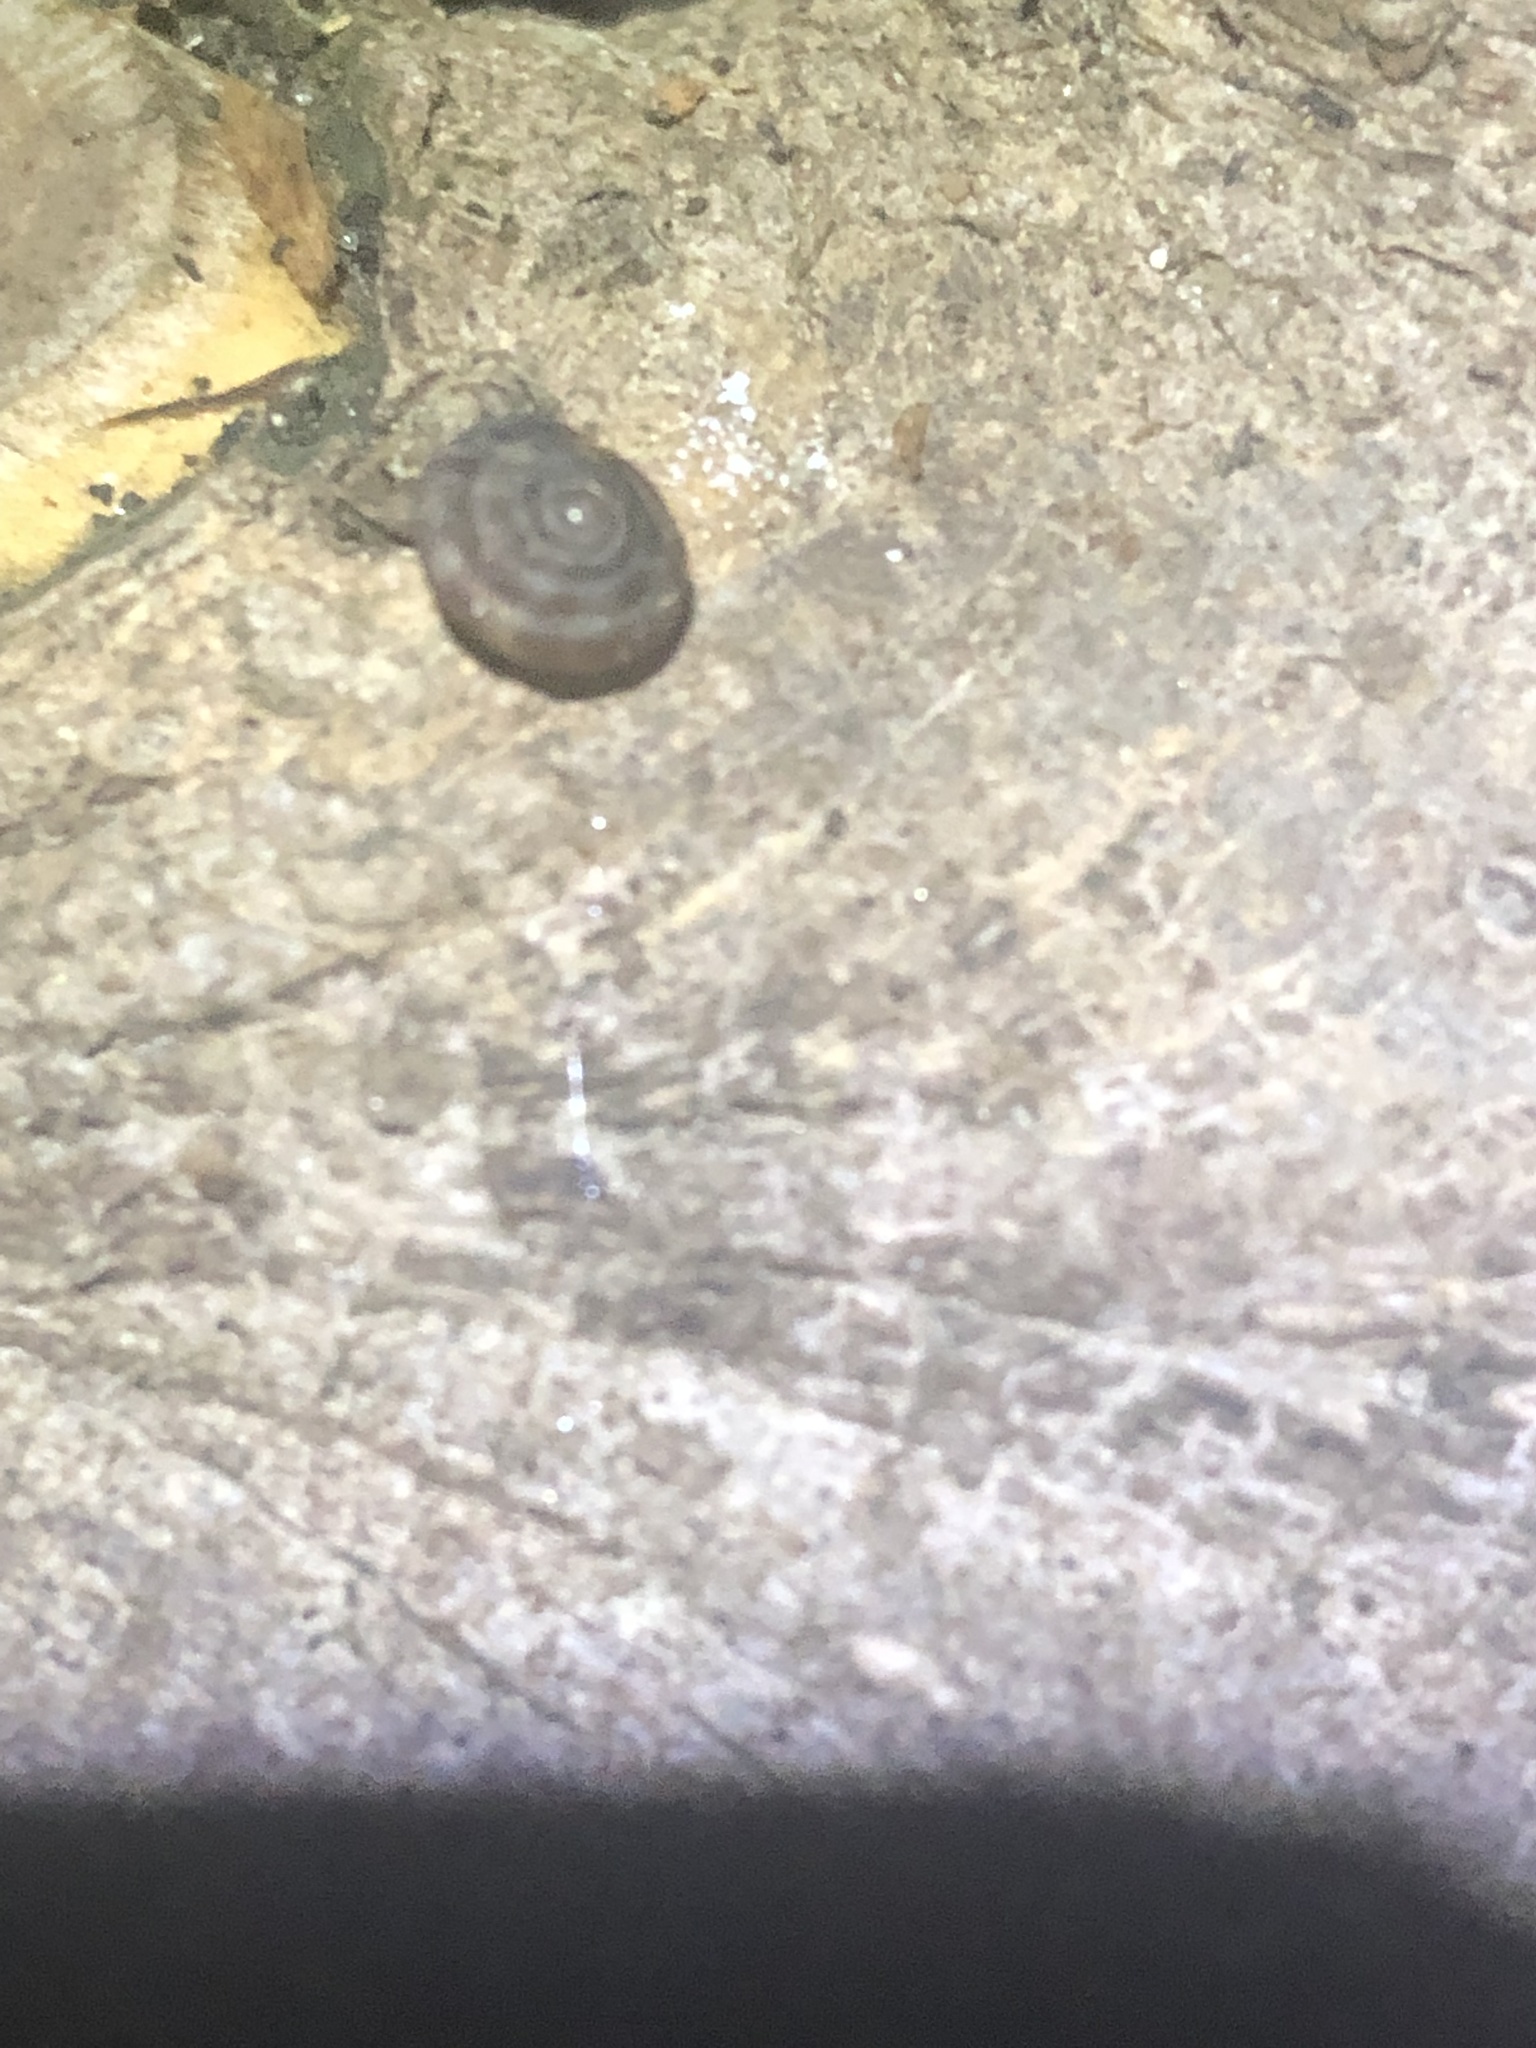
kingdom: Animalia
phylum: Mollusca
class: Gastropoda
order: Stylommatophora
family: Discidae
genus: Discus
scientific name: Discus rotundatus
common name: Rounded snail
